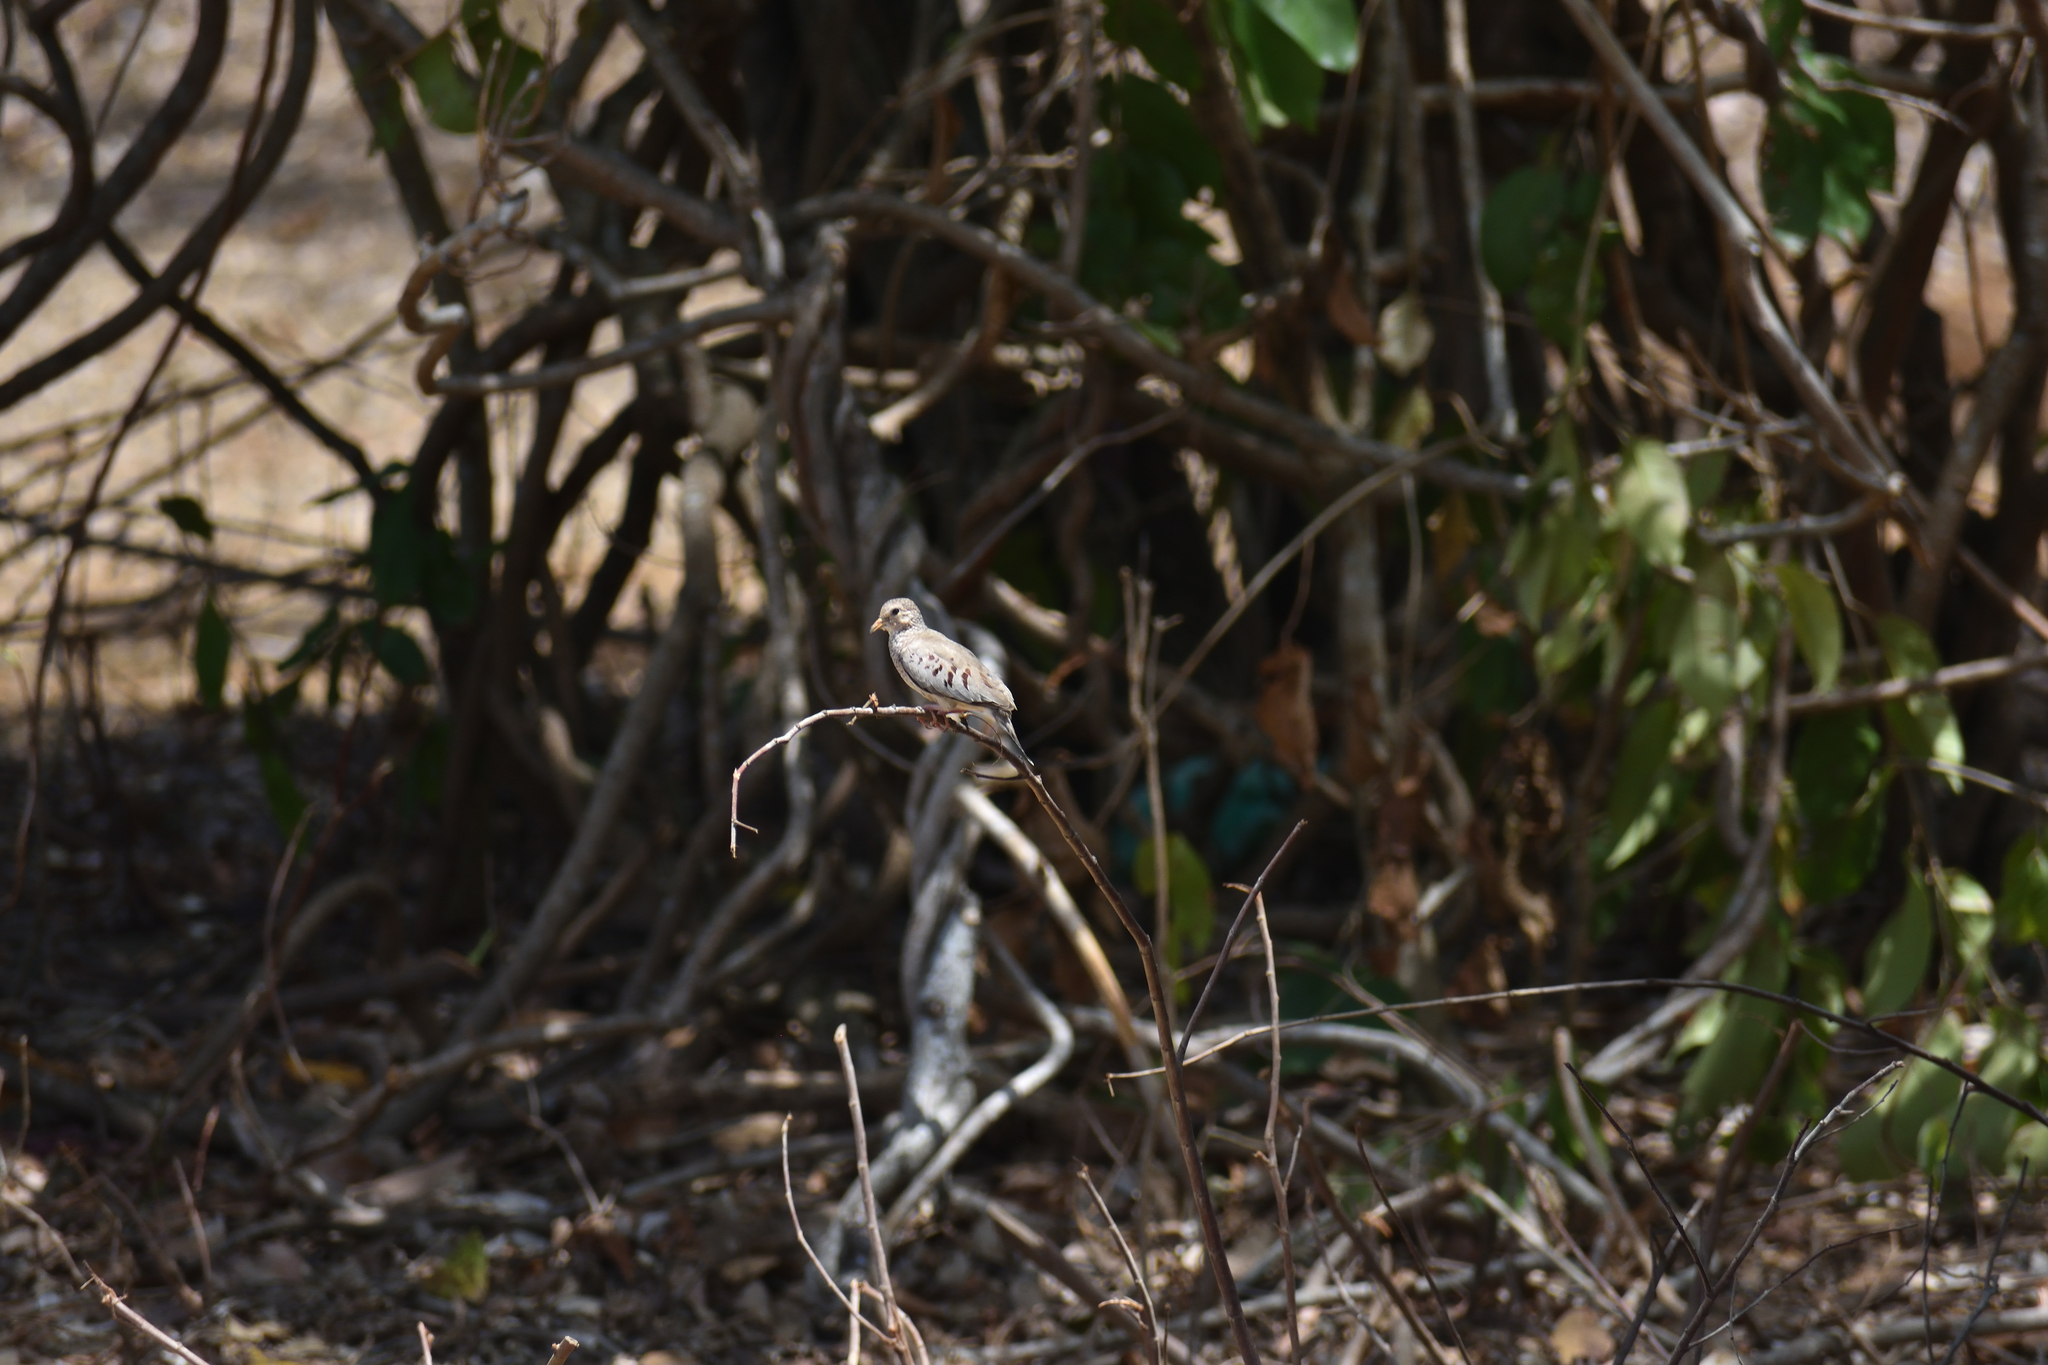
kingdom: Animalia
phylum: Chordata
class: Aves
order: Columbiformes
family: Columbidae
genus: Columbina
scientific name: Columbina passerina
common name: Common ground-dove
